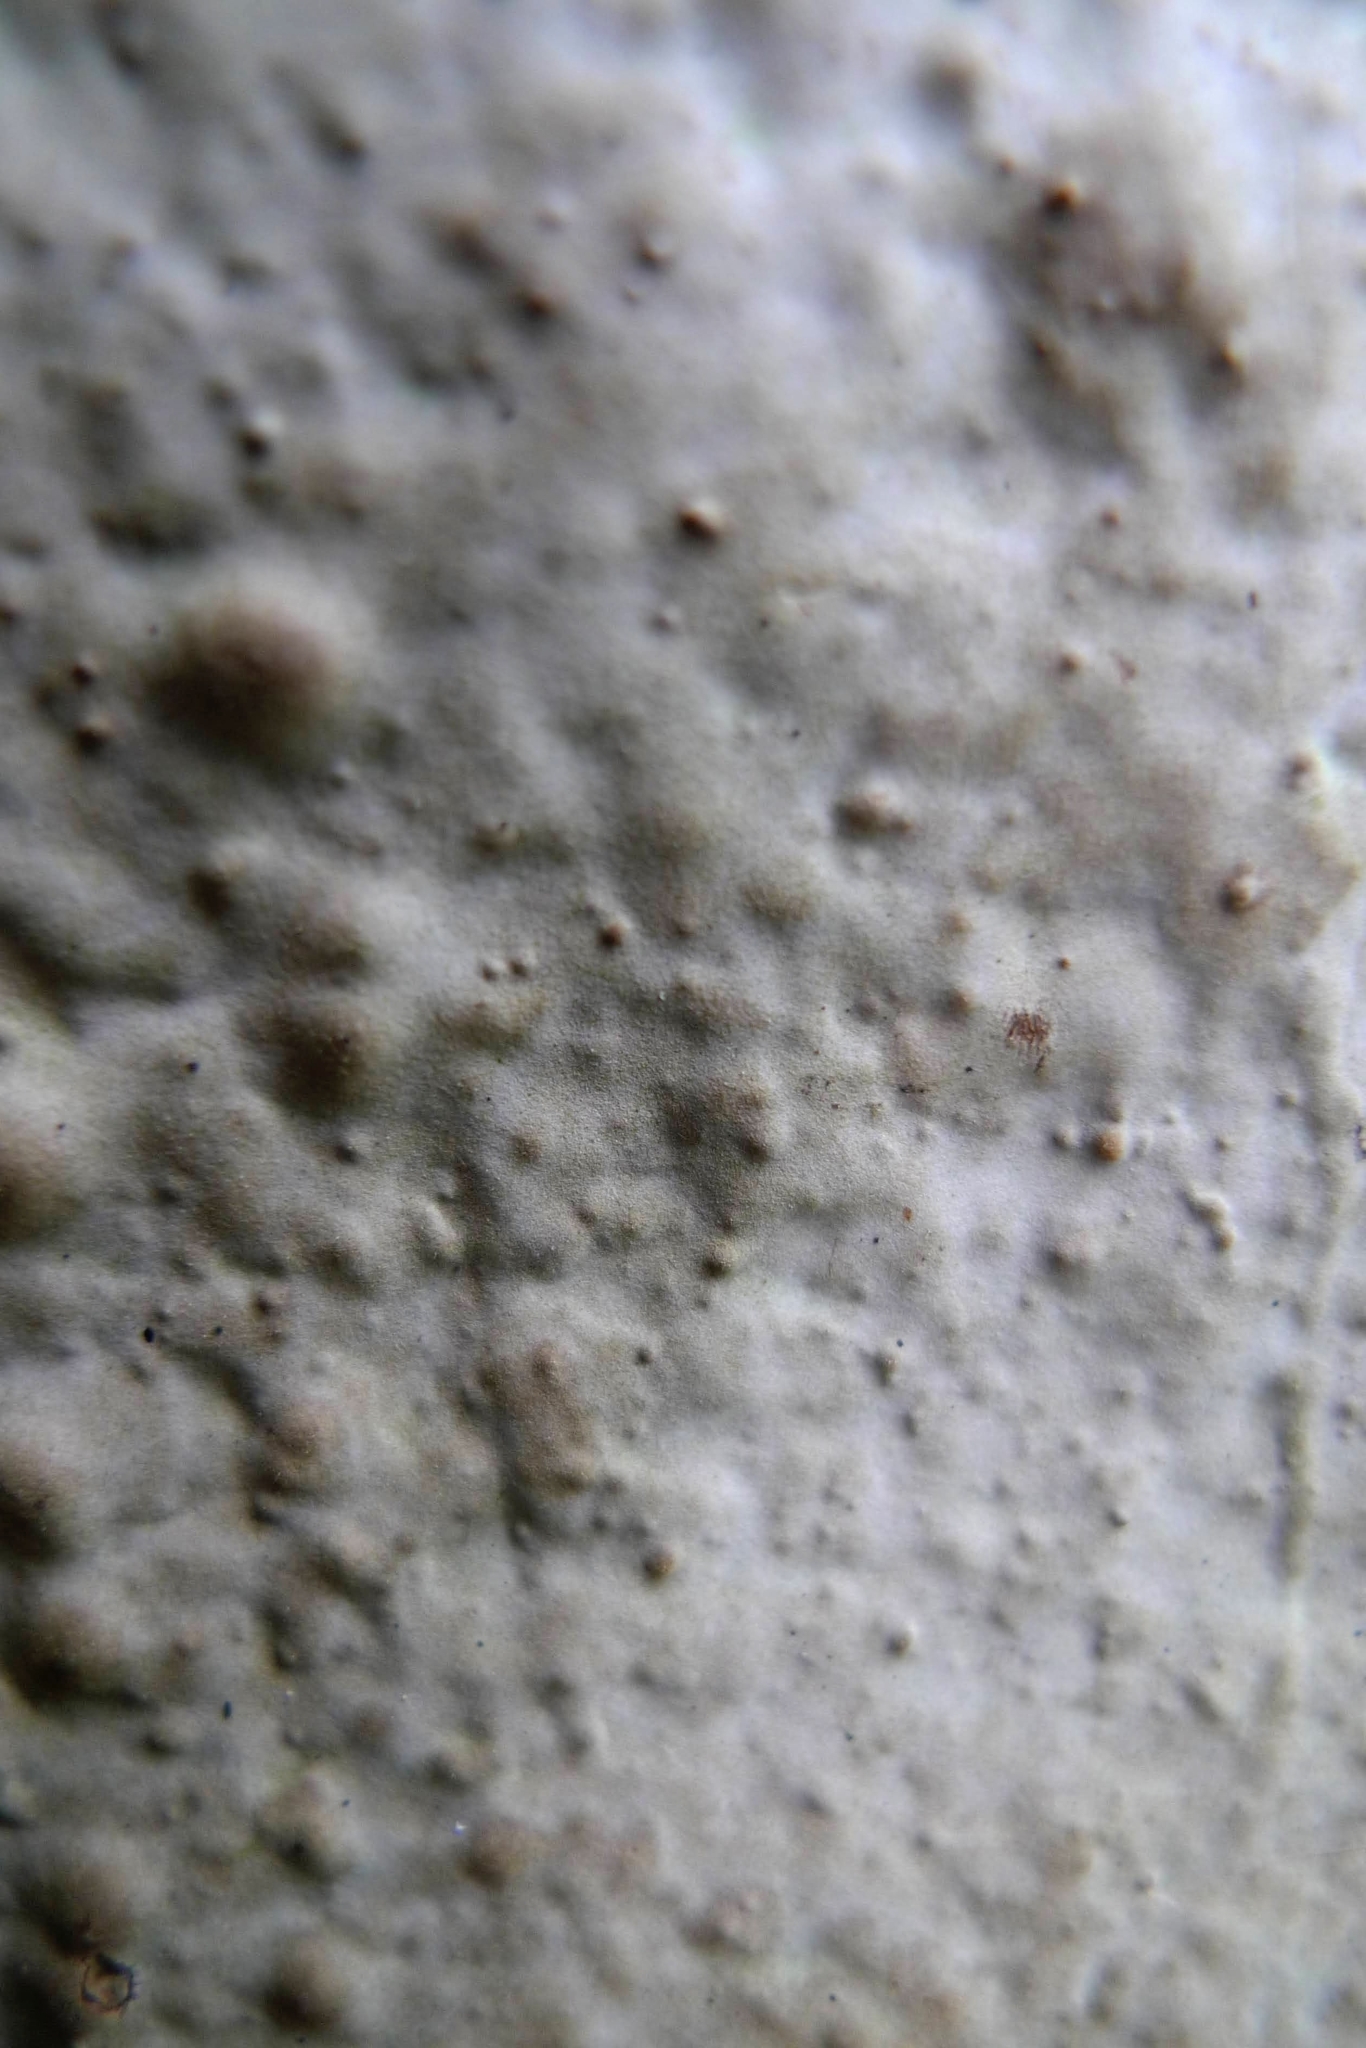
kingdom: Fungi
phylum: Basidiomycota
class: Agaricomycetes
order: Polyporales
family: Polyporaceae
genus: Fomes
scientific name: Fomes fomentarius
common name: Hoof fungus
